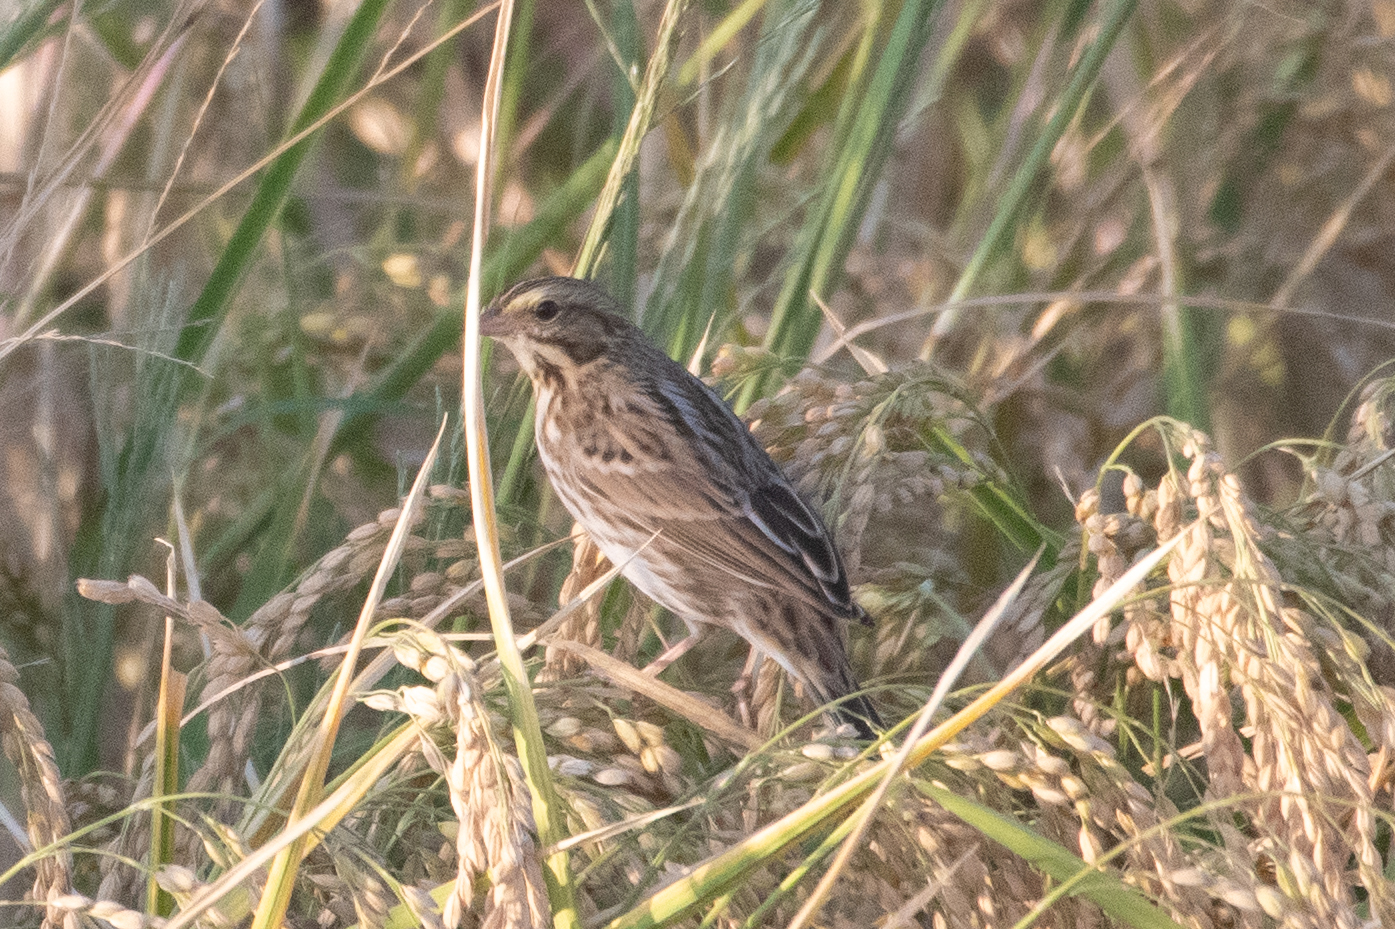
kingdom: Animalia
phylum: Chordata
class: Aves
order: Passeriformes
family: Passerellidae
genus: Passerculus
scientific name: Passerculus sandwichensis
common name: Savannah sparrow
